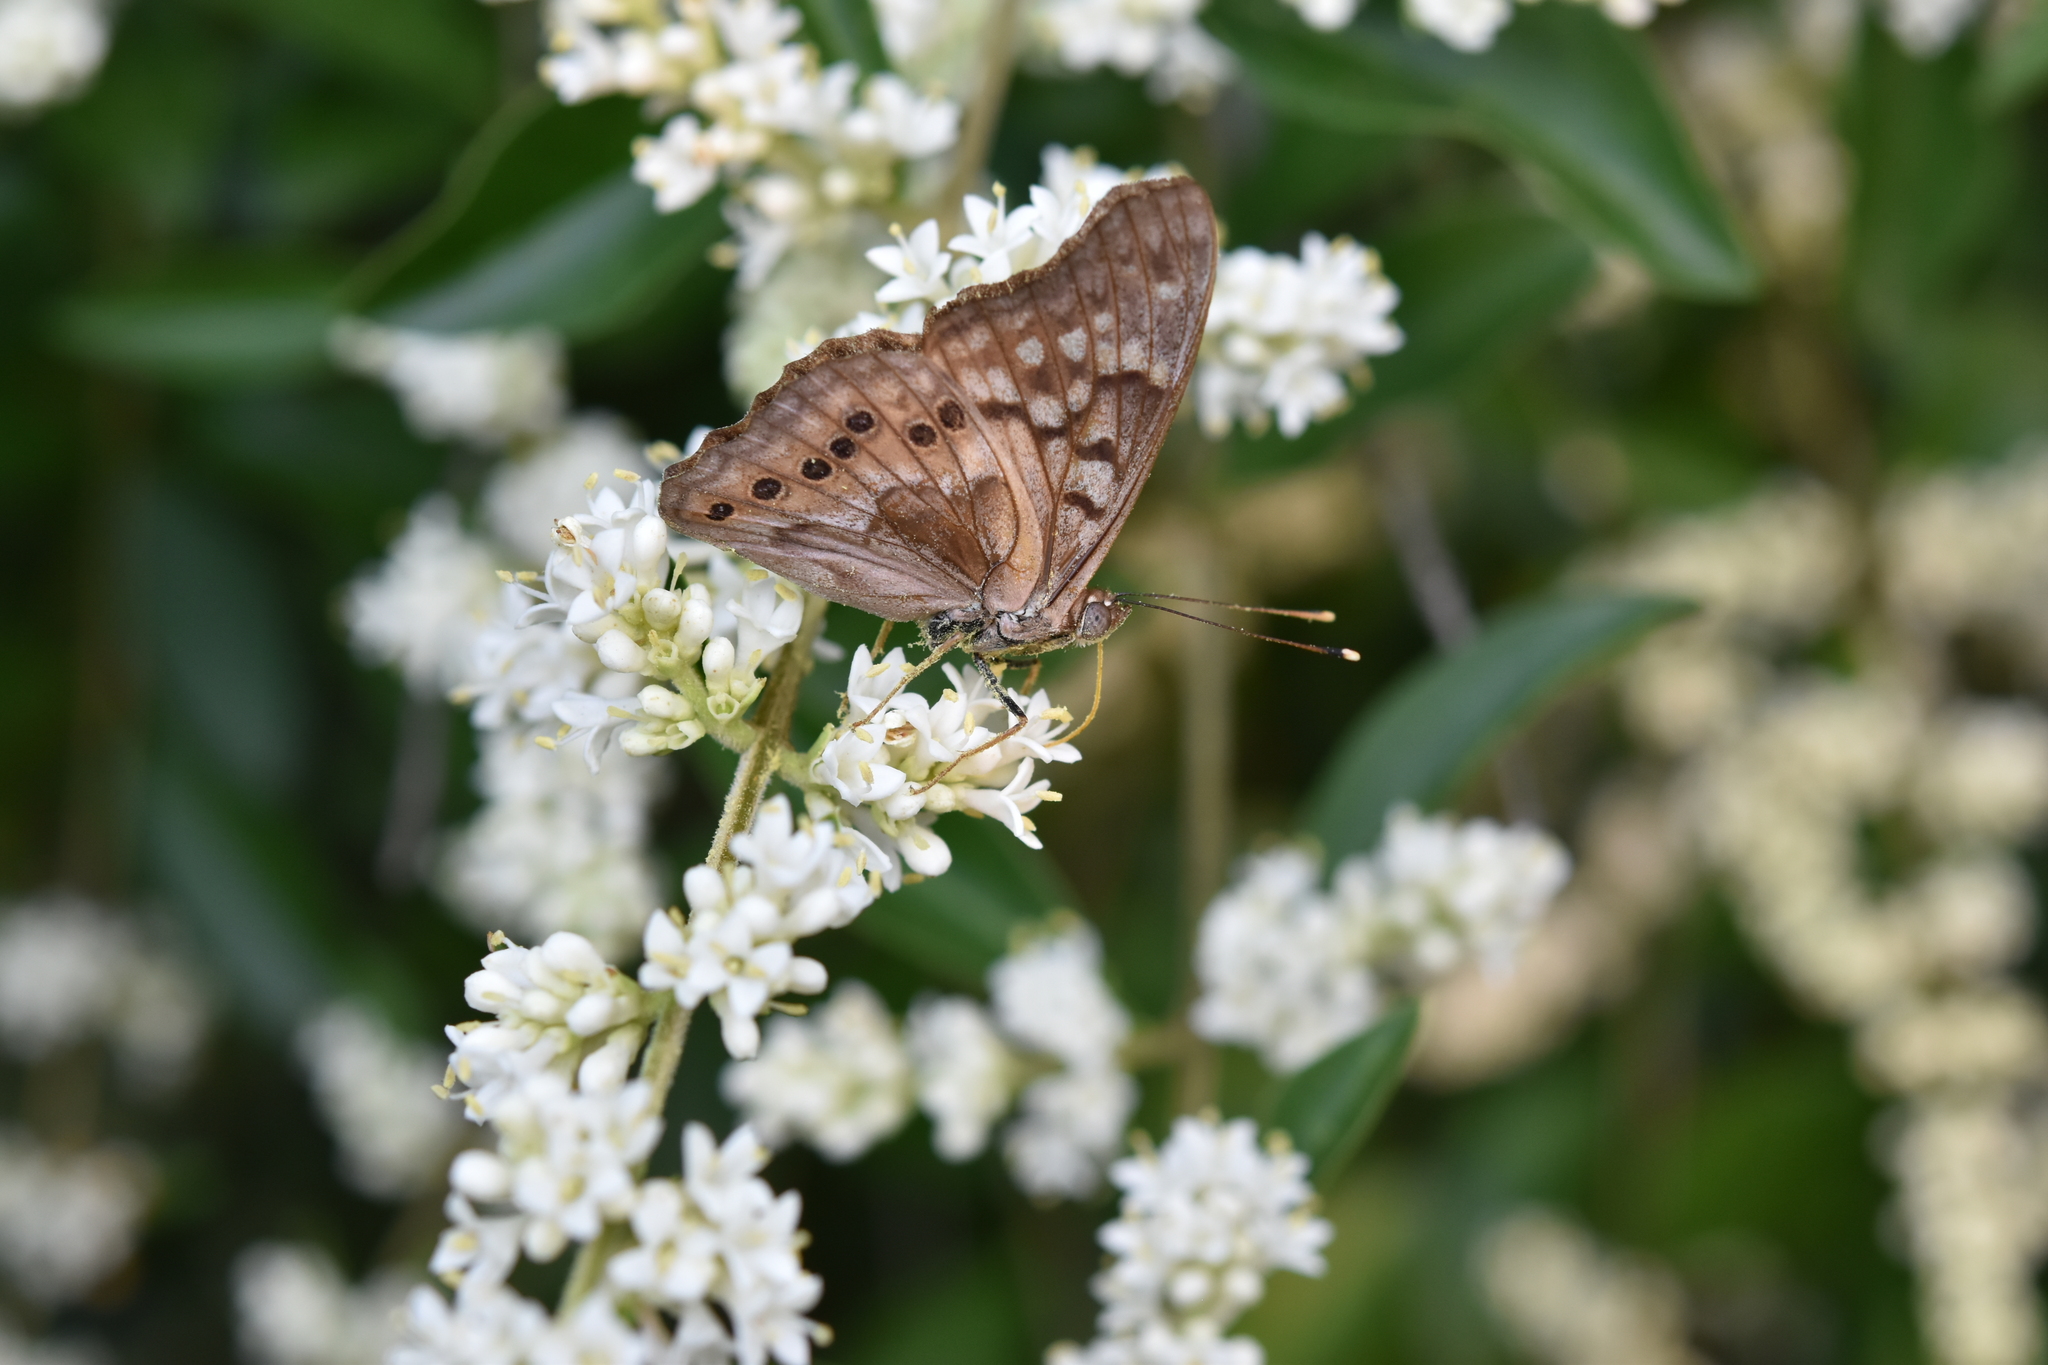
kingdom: Animalia
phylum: Arthropoda
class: Insecta
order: Lepidoptera
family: Nymphalidae
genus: Asterocampa
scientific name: Asterocampa celtis
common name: Hackberry emperor
